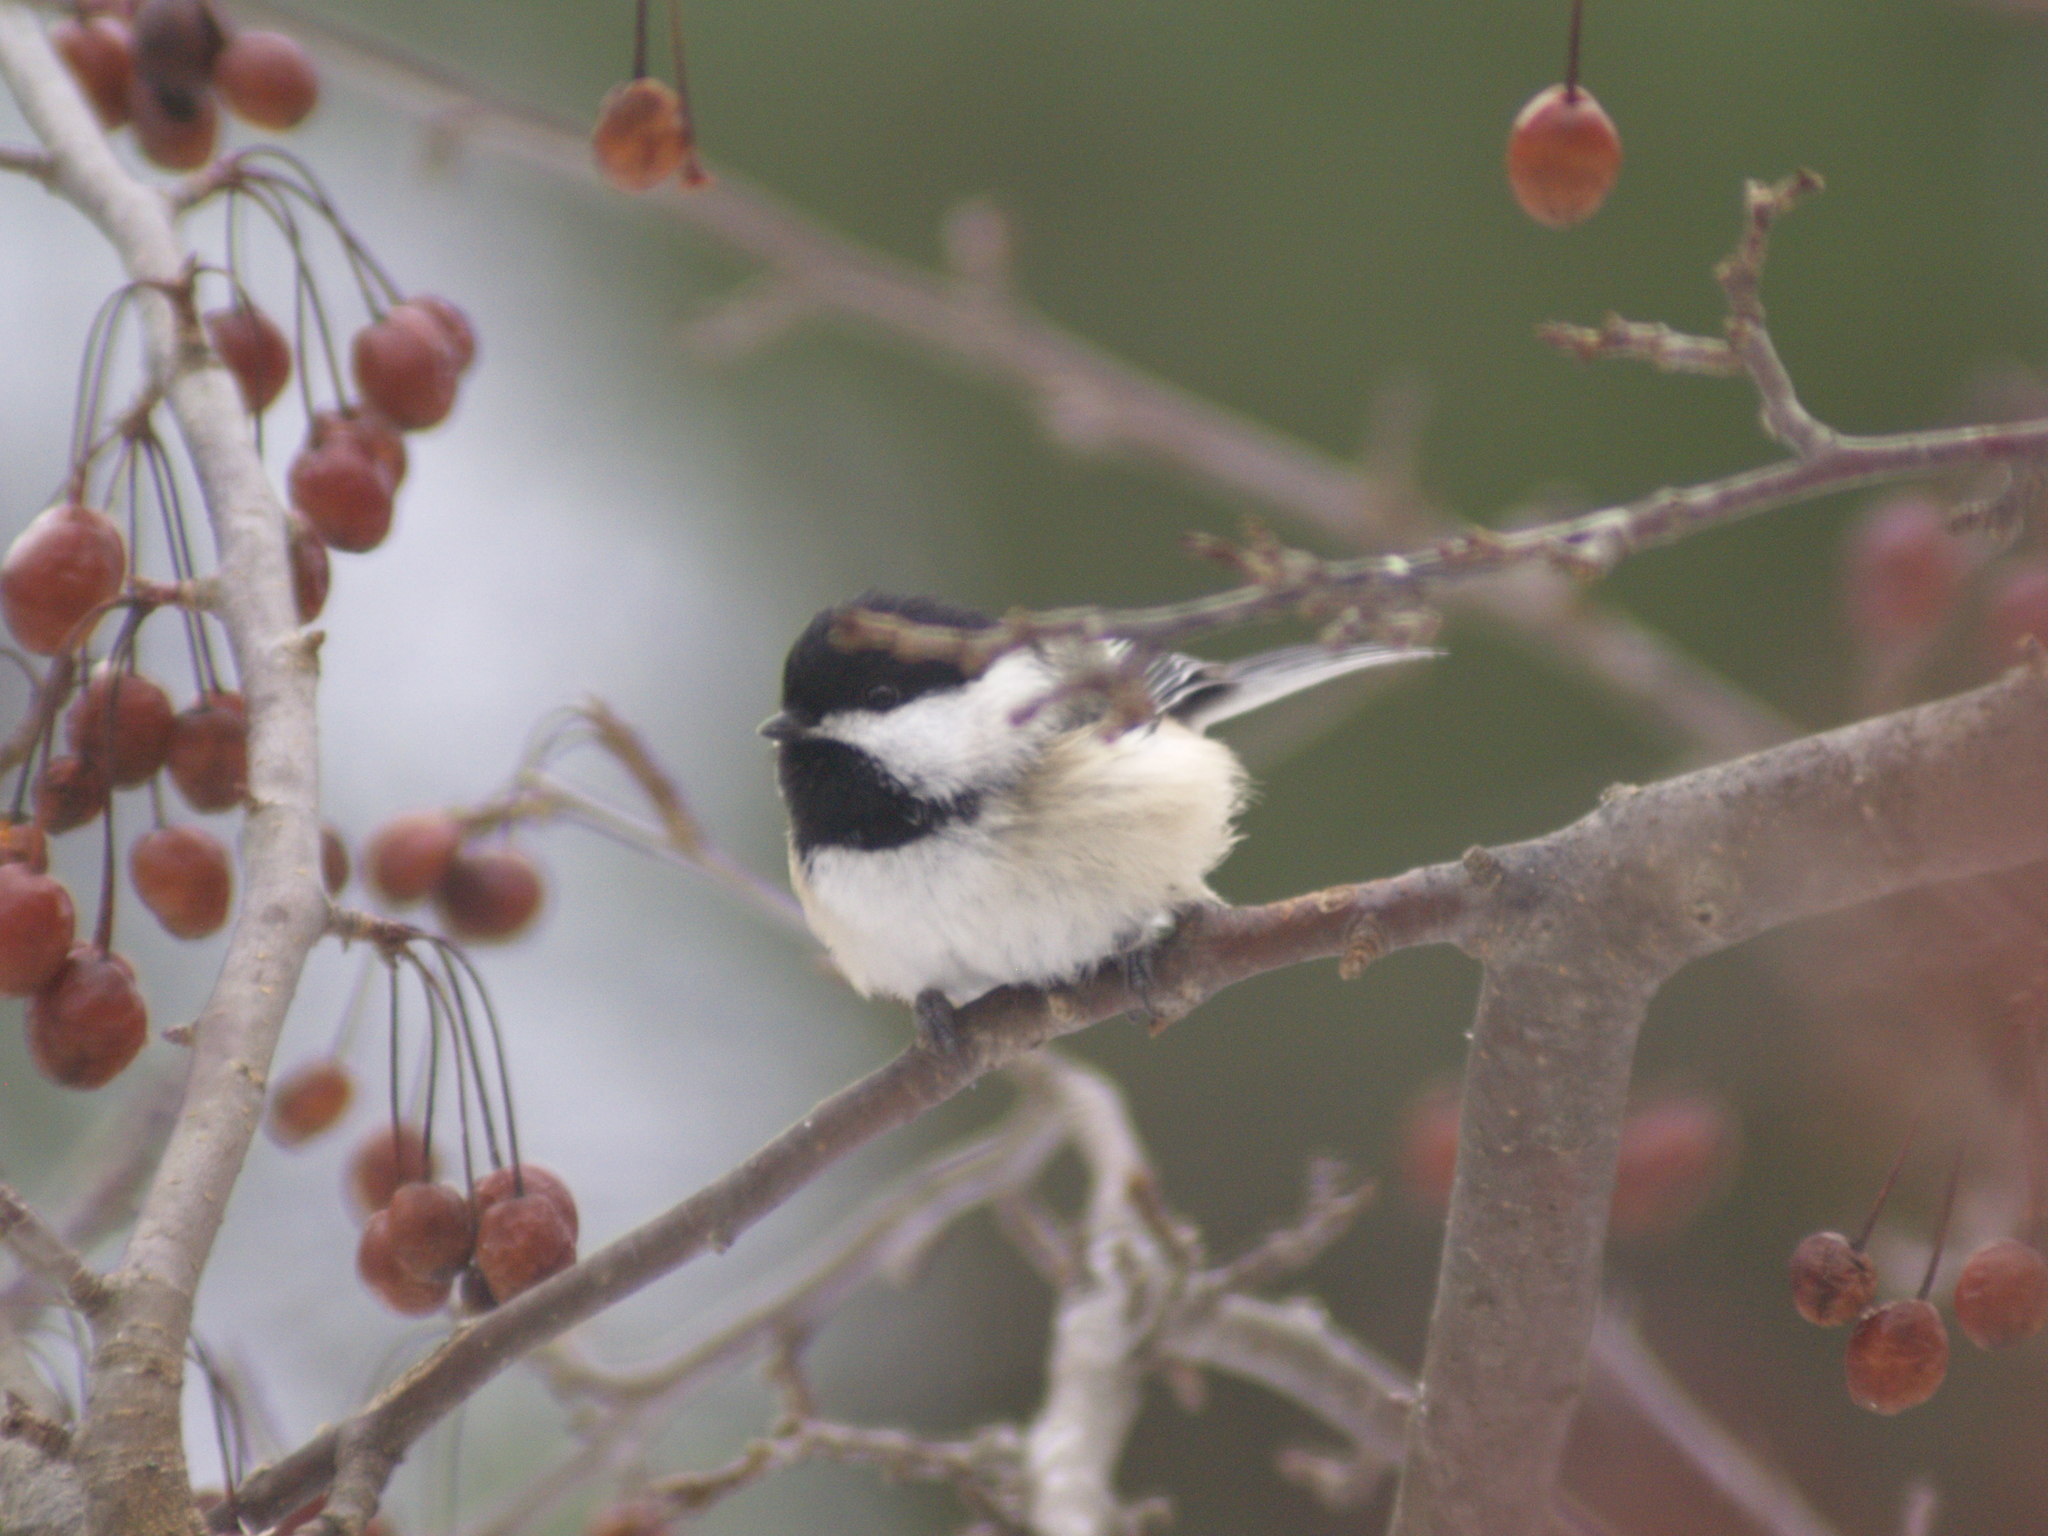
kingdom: Animalia
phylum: Chordata
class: Aves
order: Passeriformes
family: Paridae
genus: Poecile
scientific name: Poecile atricapillus
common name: Black-capped chickadee
